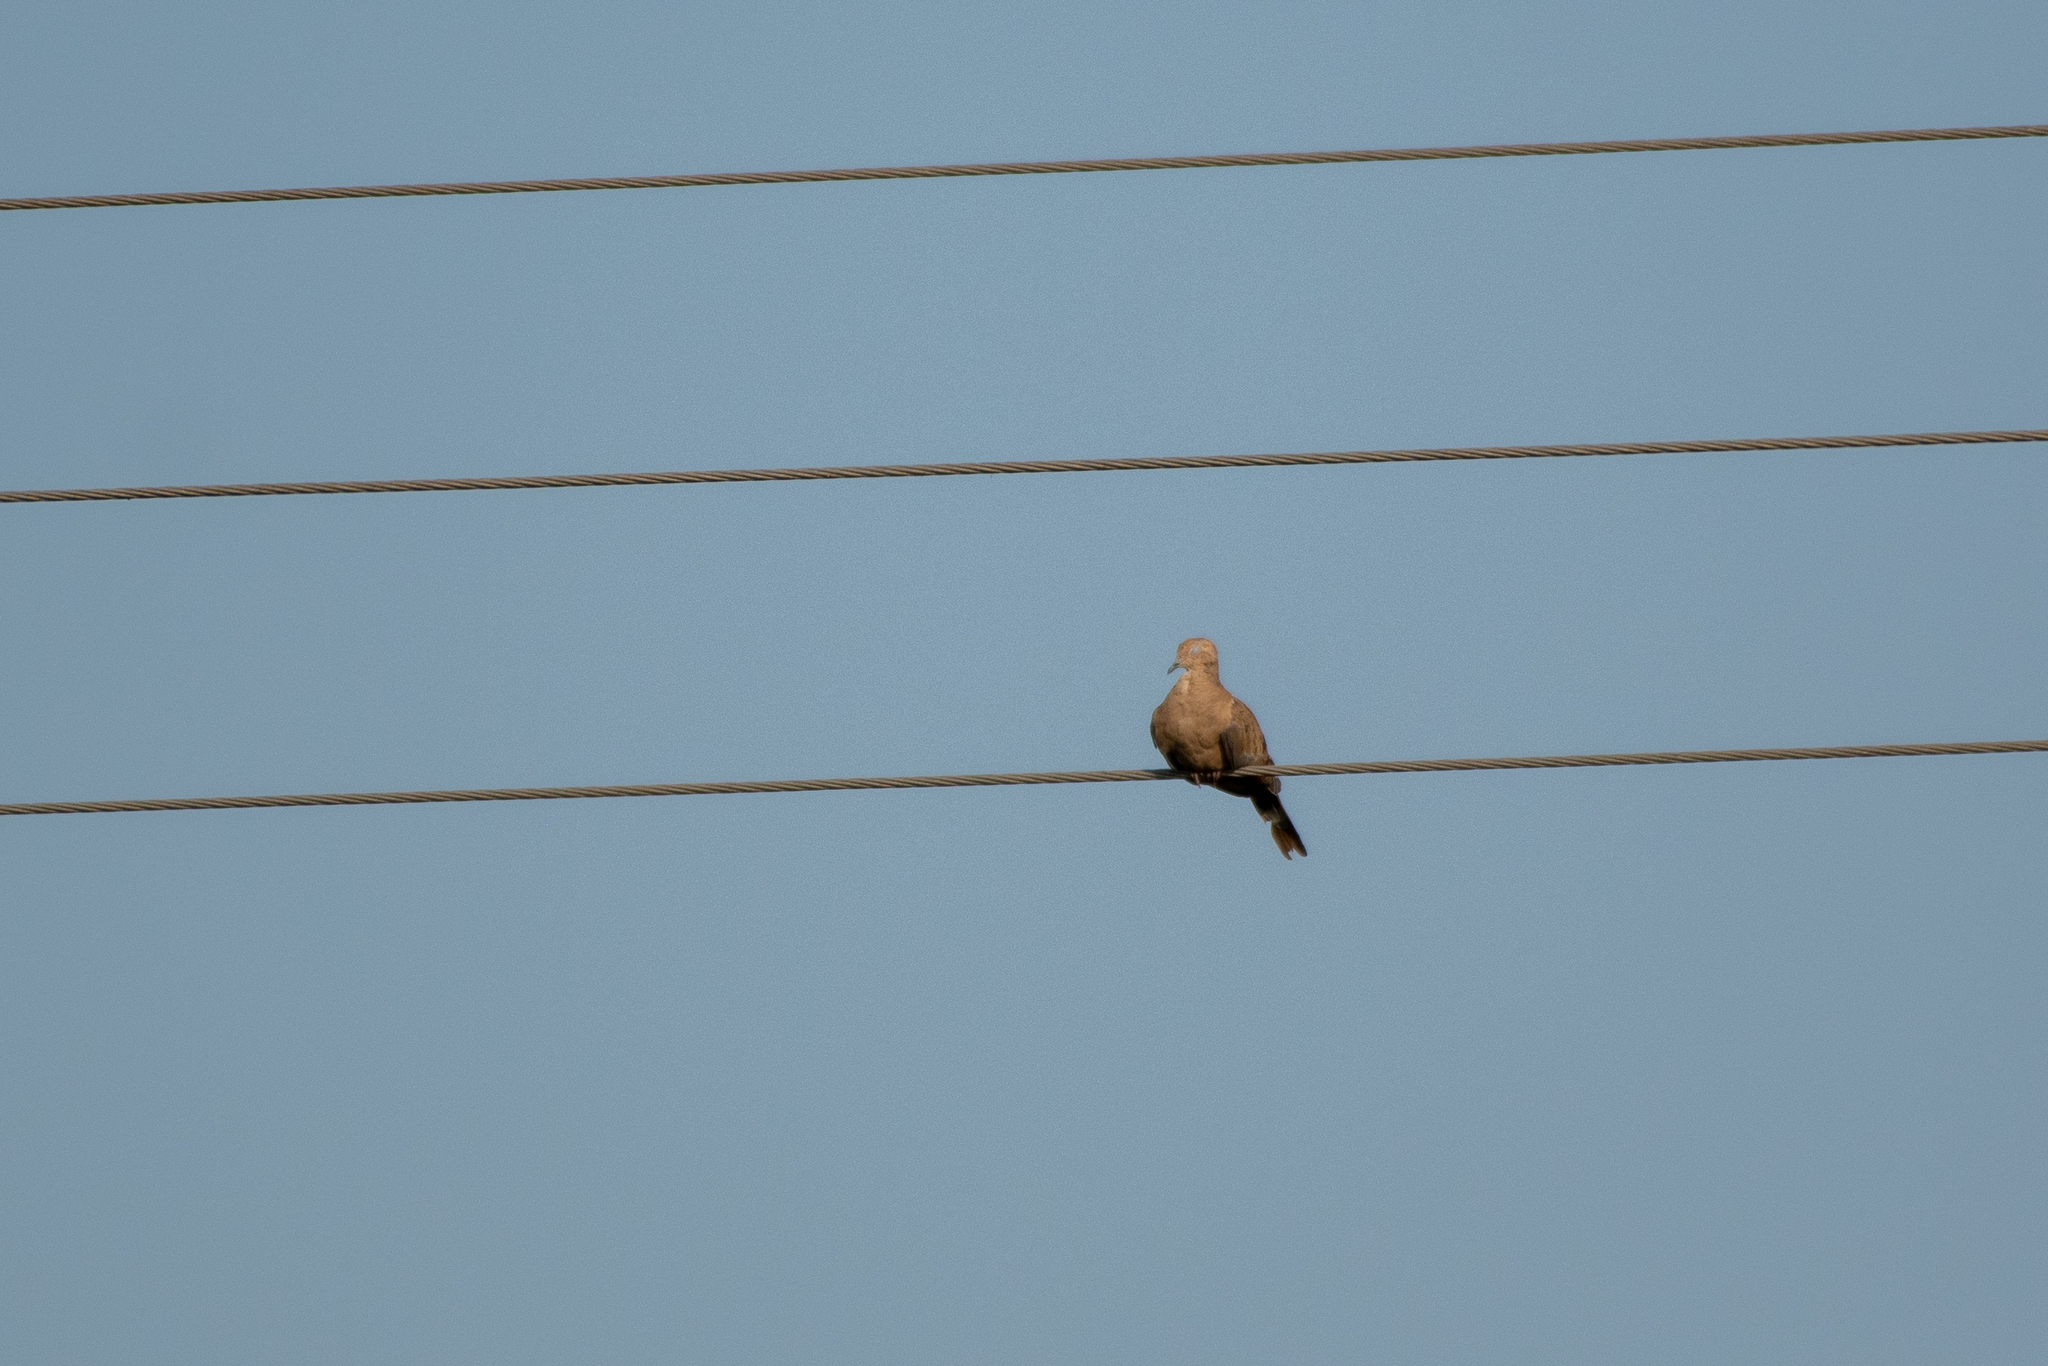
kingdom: Animalia
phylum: Chordata
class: Aves
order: Columbiformes
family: Columbidae
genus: Zenaida
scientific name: Zenaida macroura
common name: Mourning dove
